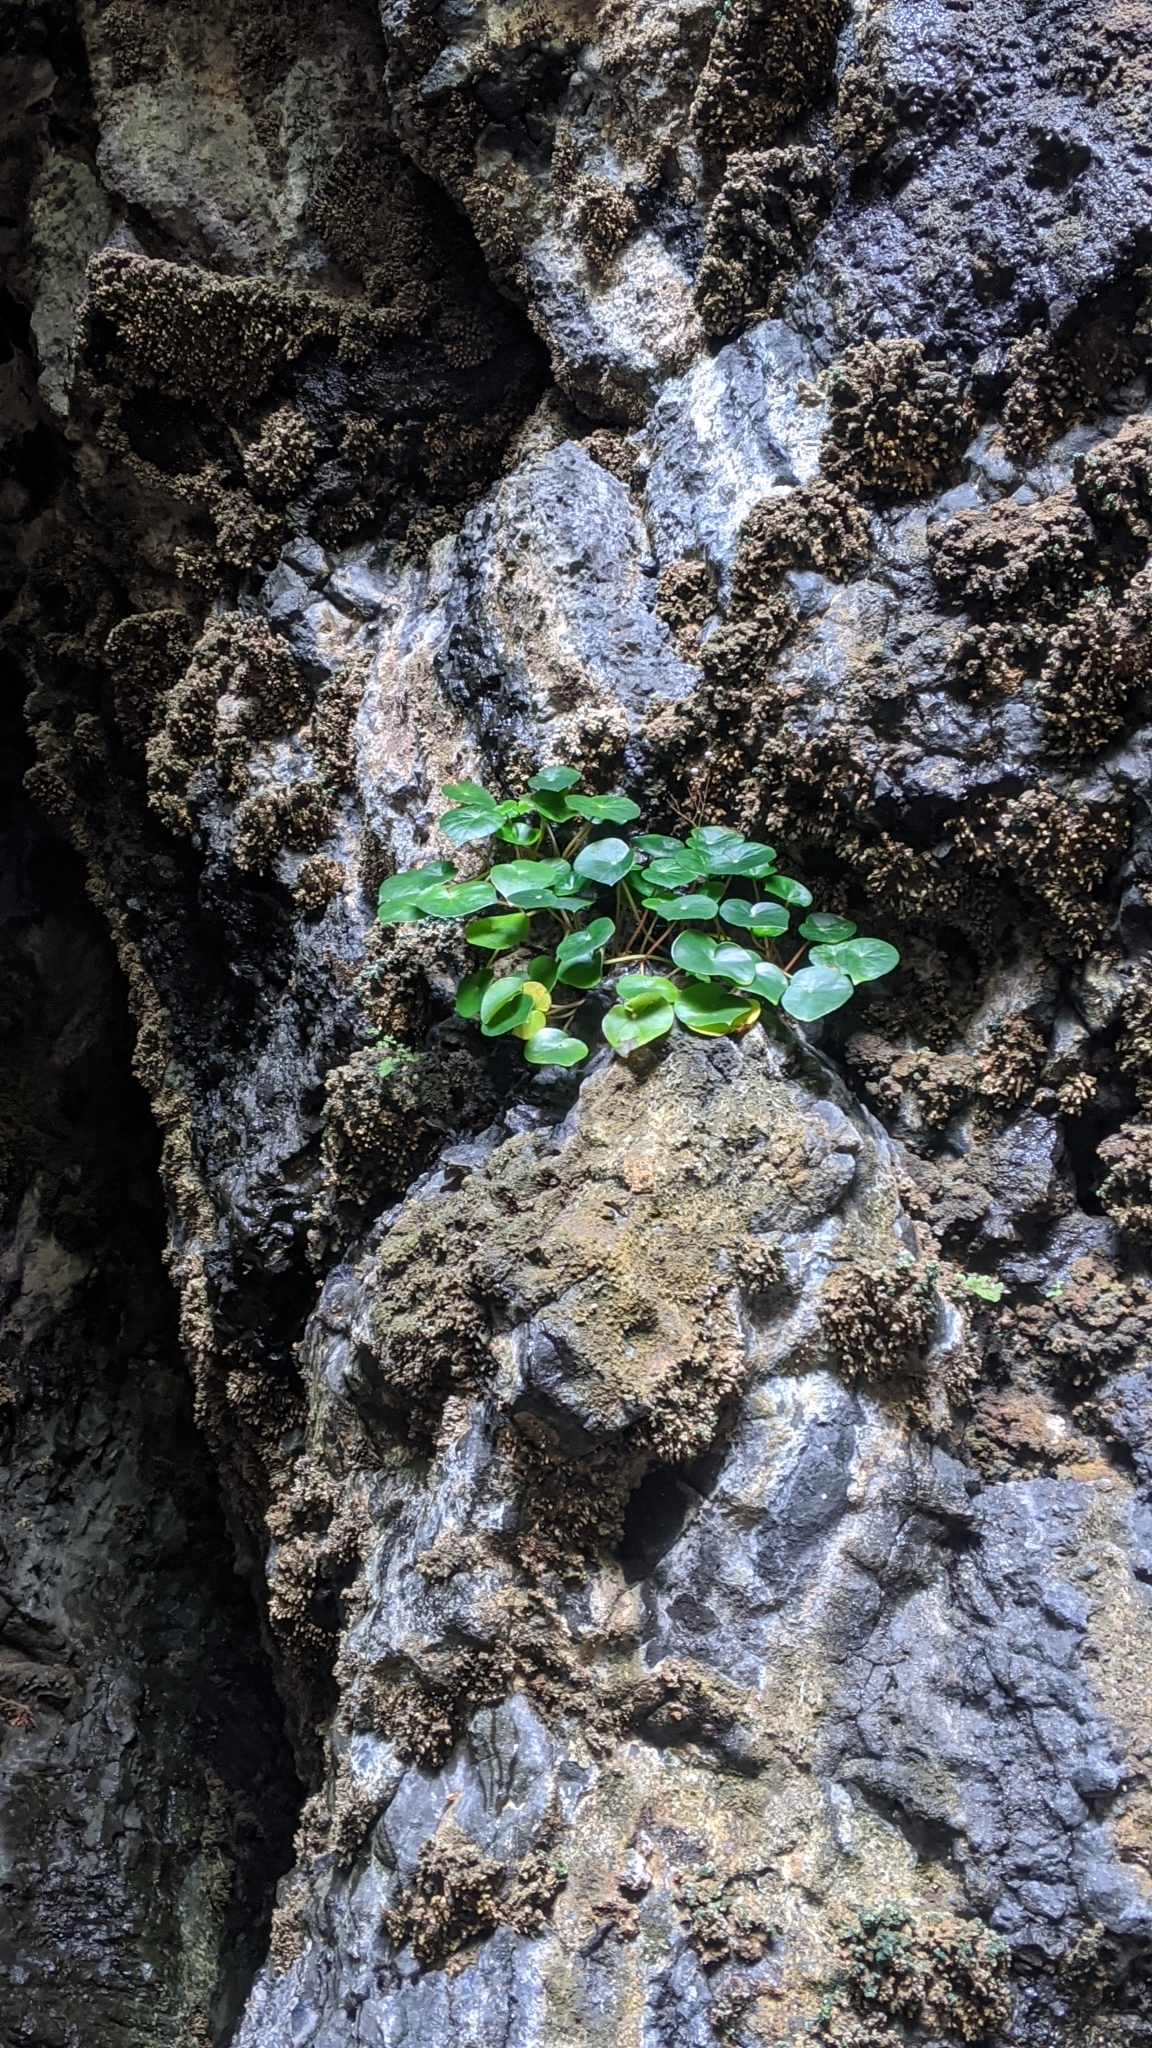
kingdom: Plantae
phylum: Tracheophyta
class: Magnoliopsida
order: Cucurbitales
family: Begoniaceae
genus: Begonia
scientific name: Begonia fenicis
